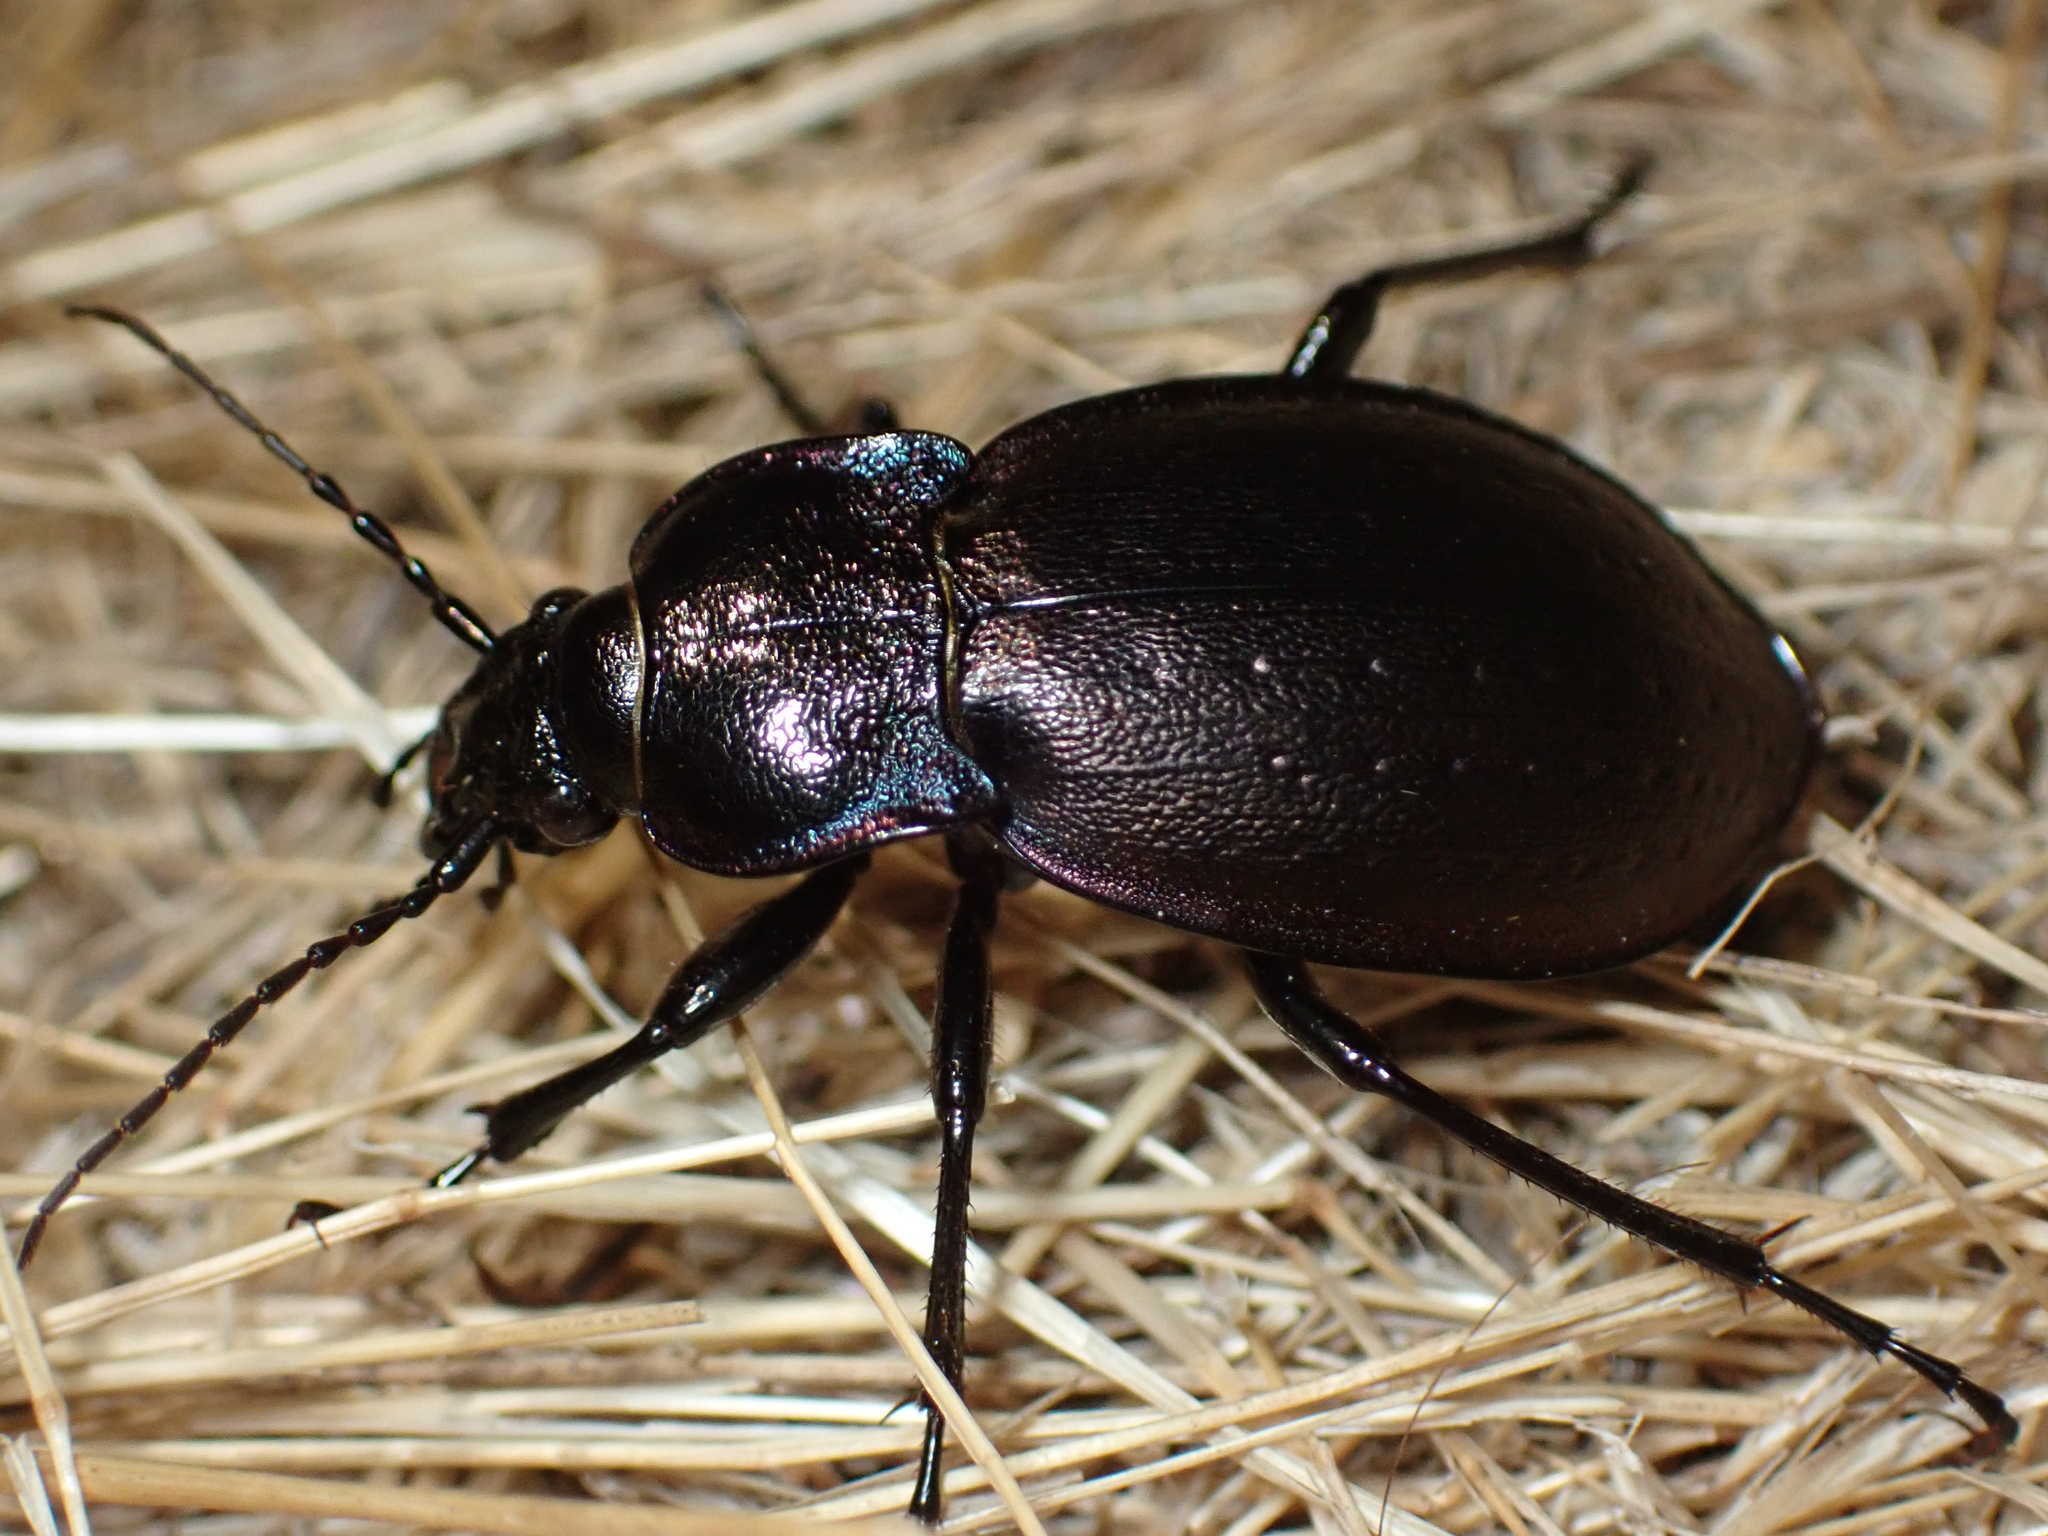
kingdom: Animalia
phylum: Arthropoda
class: Insecta
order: Coleoptera
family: Carabidae
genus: Carabus
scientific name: Carabus nemoralis
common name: European ground beetle
